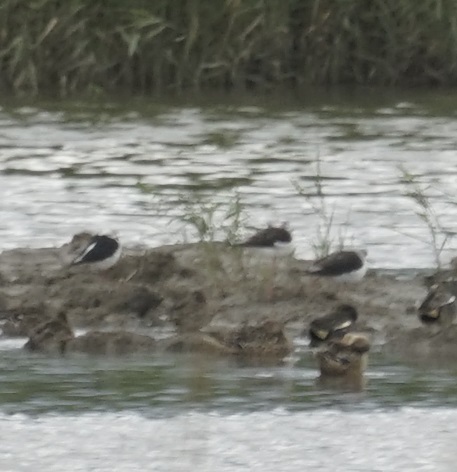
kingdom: Animalia
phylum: Chordata
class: Aves
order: Charadriiformes
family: Recurvirostridae
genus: Himantopus
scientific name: Himantopus himantopus
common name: Black-winged stilt
